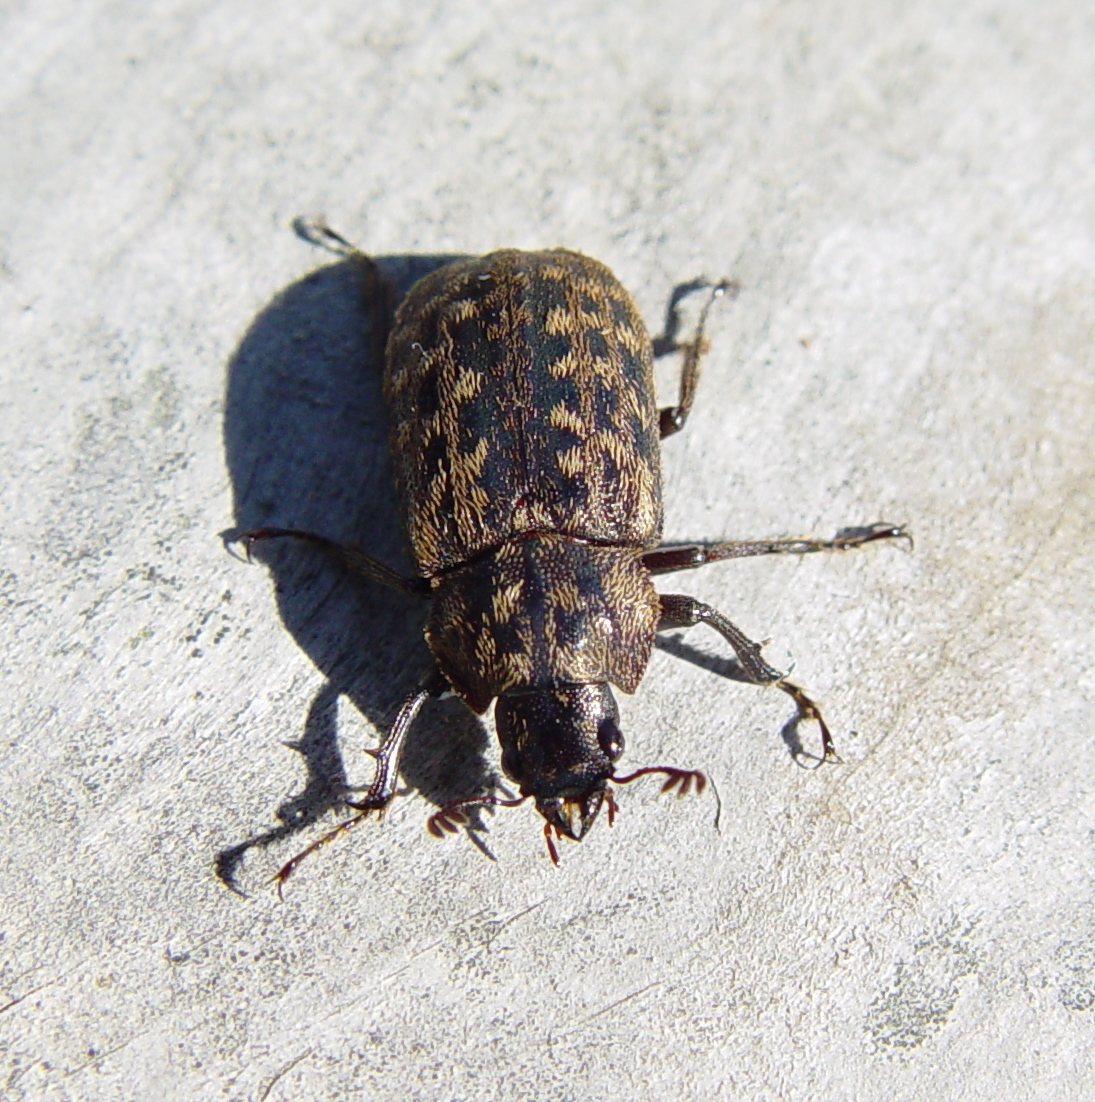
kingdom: Animalia
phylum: Arthropoda
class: Insecta
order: Coleoptera
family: Lucanidae
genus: Mitophyllus
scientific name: Mitophyllus parrianus
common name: Parry's stag beetle
